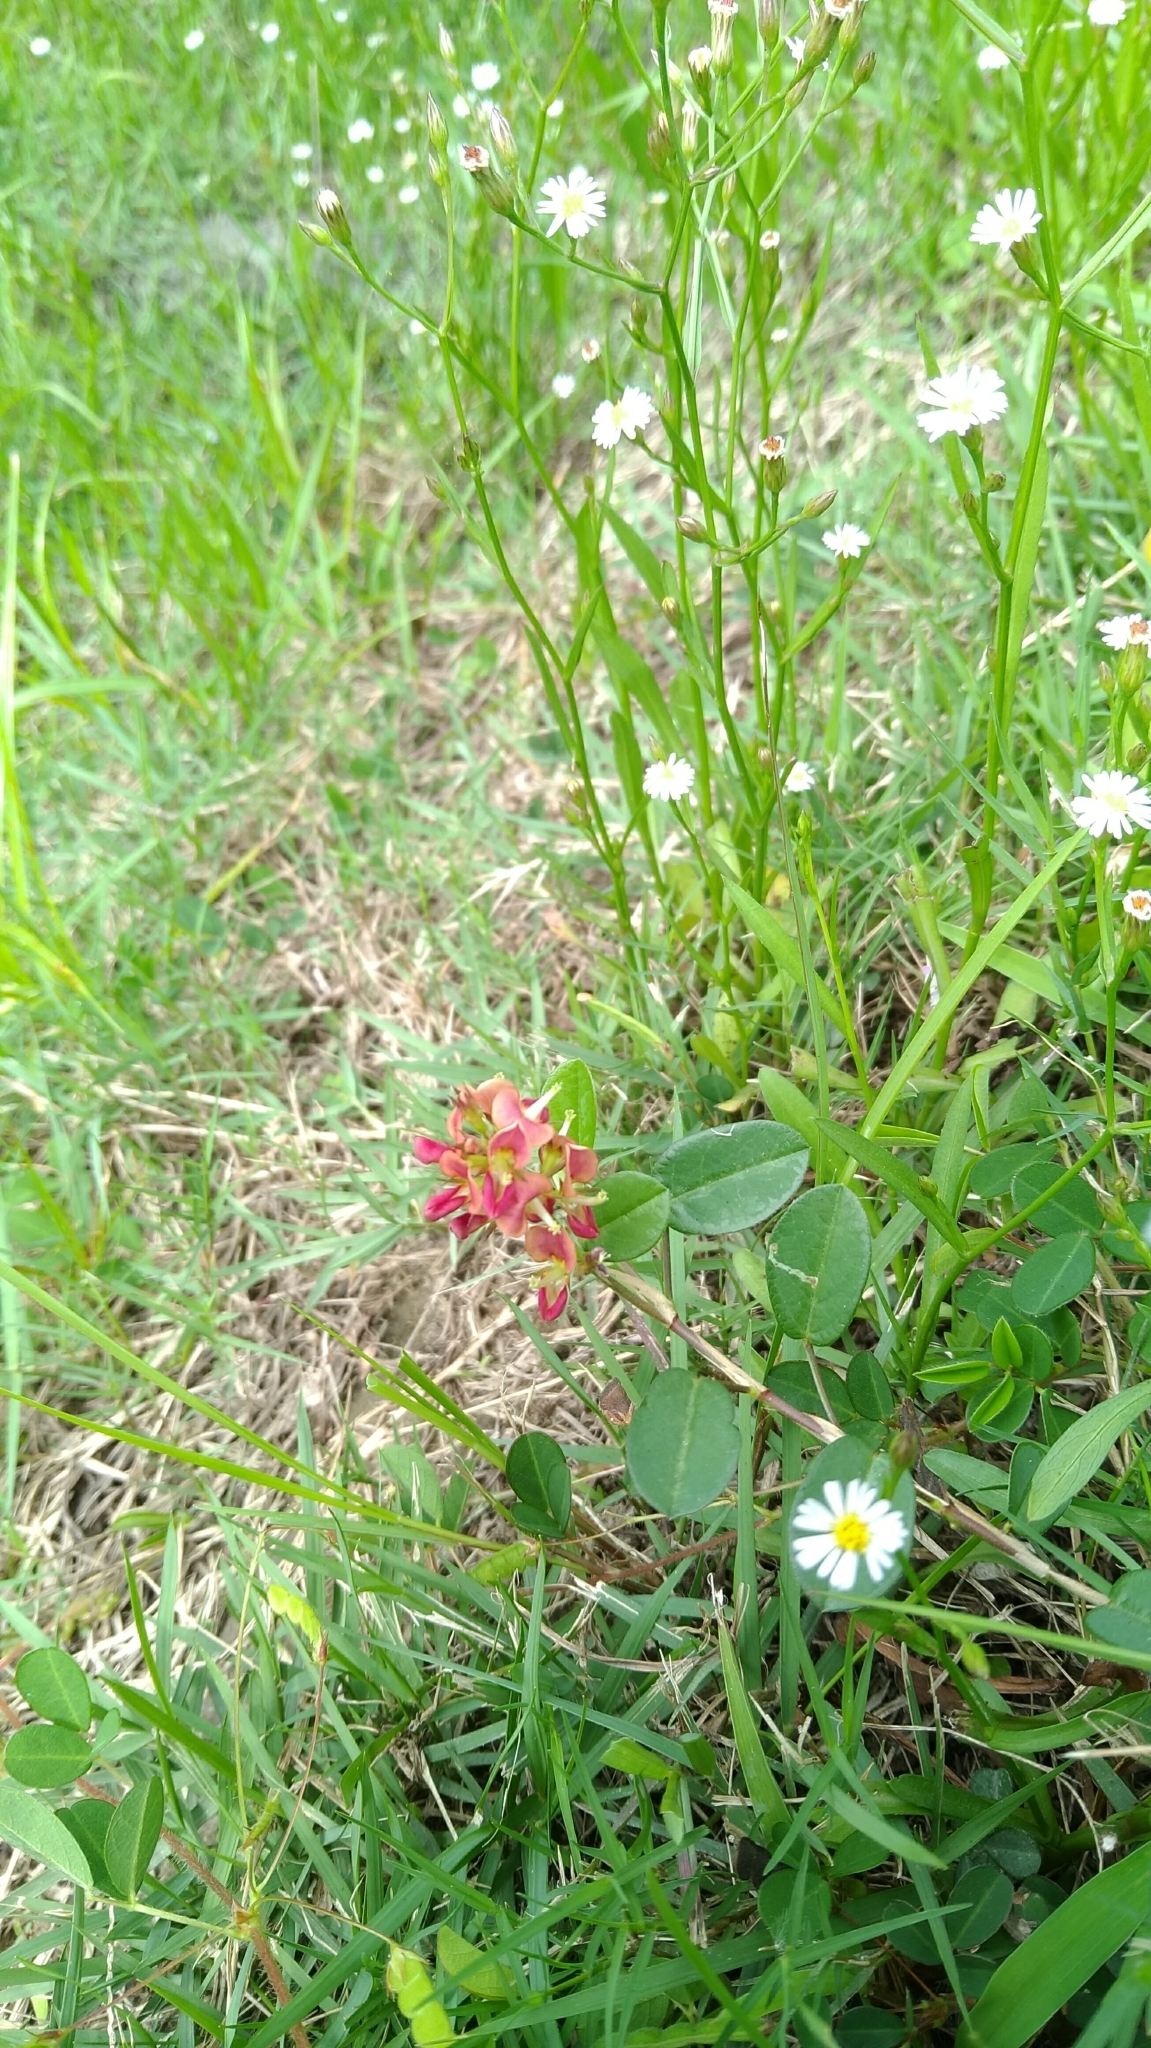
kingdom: Plantae
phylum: Tracheophyta
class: Magnoliopsida
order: Fabales
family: Fabaceae
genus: Alysicarpus
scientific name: Alysicarpus vaginalis
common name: White moneywort
